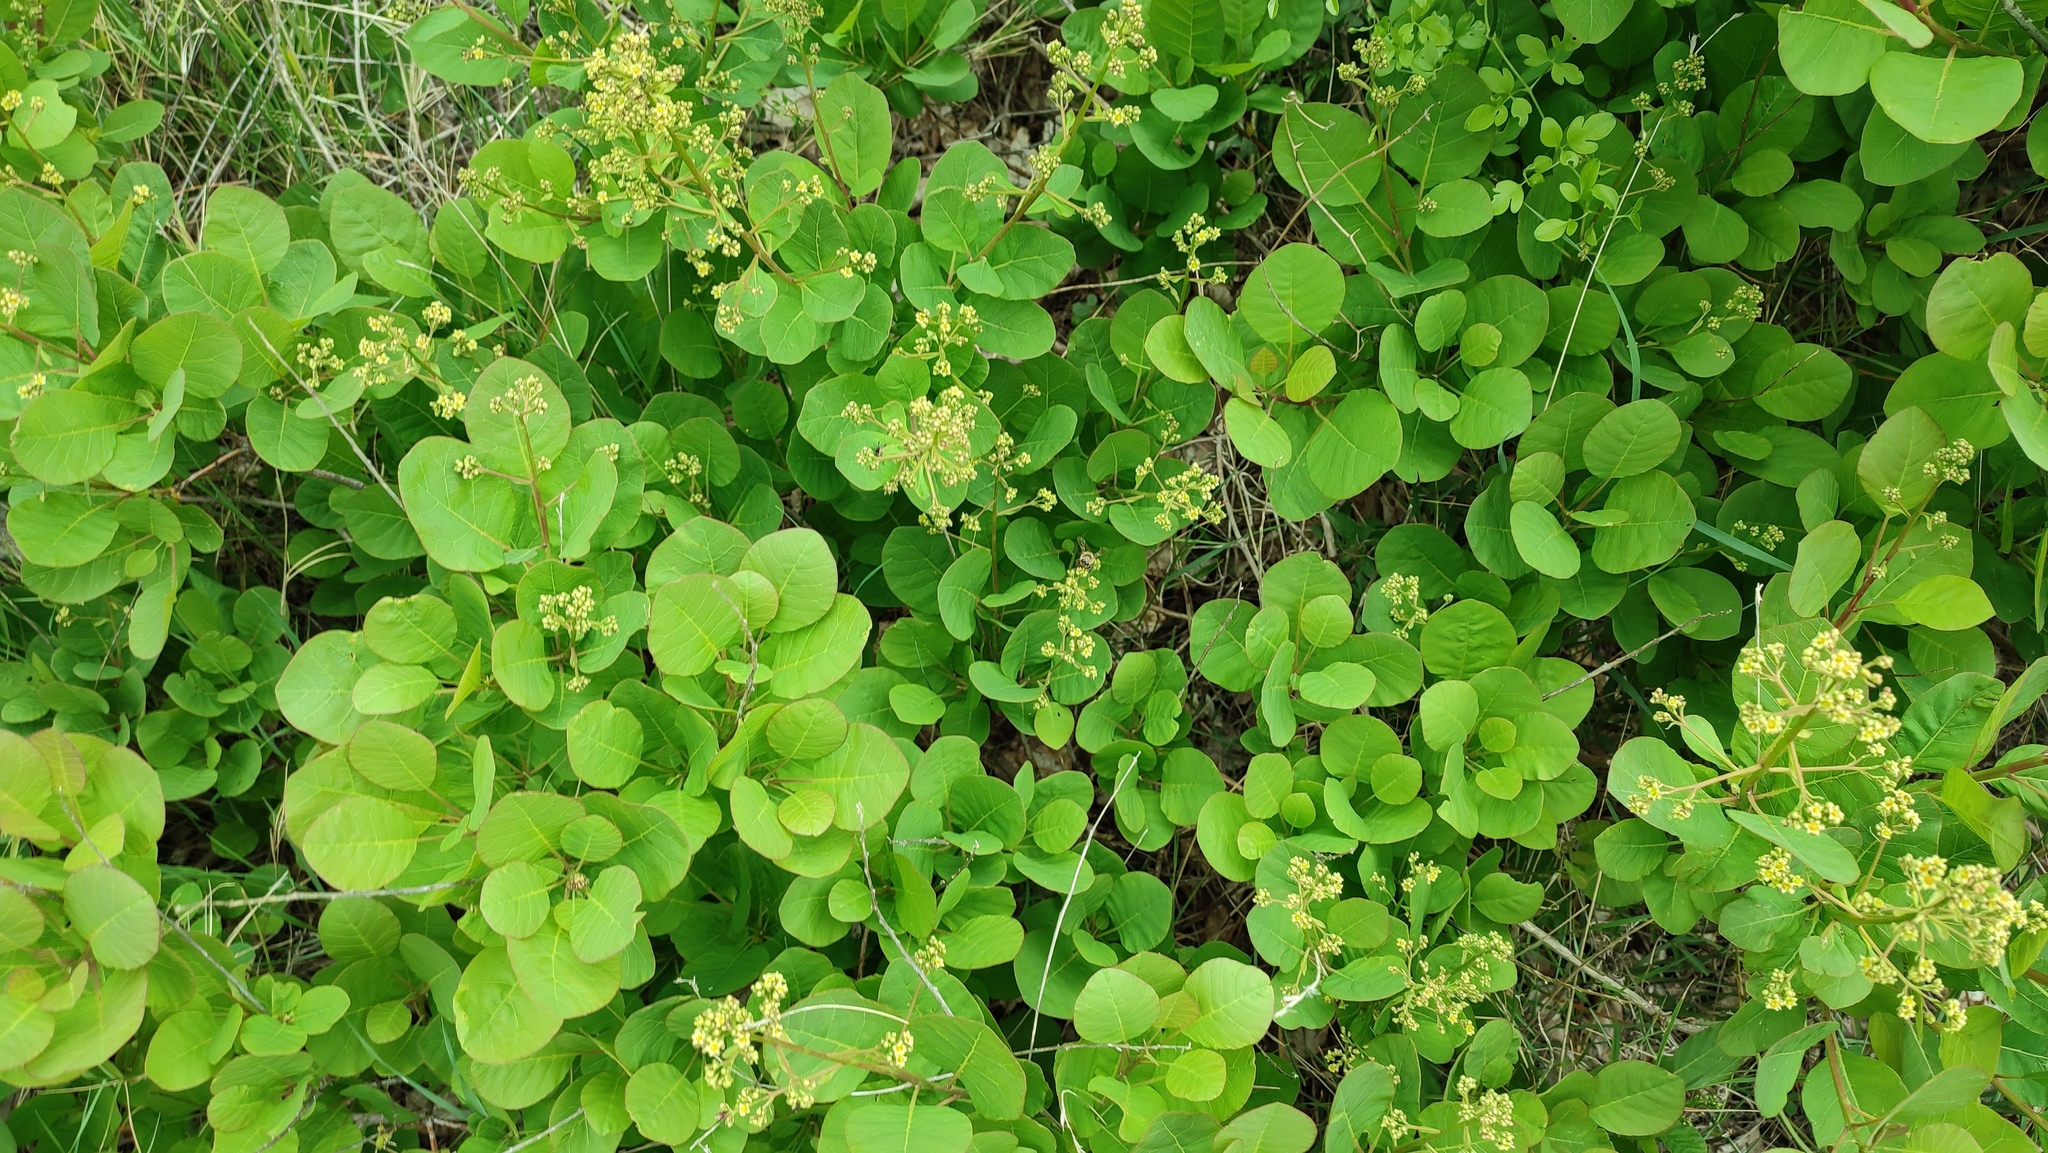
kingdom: Plantae
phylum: Tracheophyta
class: Magnoliopsida
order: Sapindales
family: Anacardiaceae
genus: Cotinus
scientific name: Cotinus coggygria
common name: Smoke-tree
